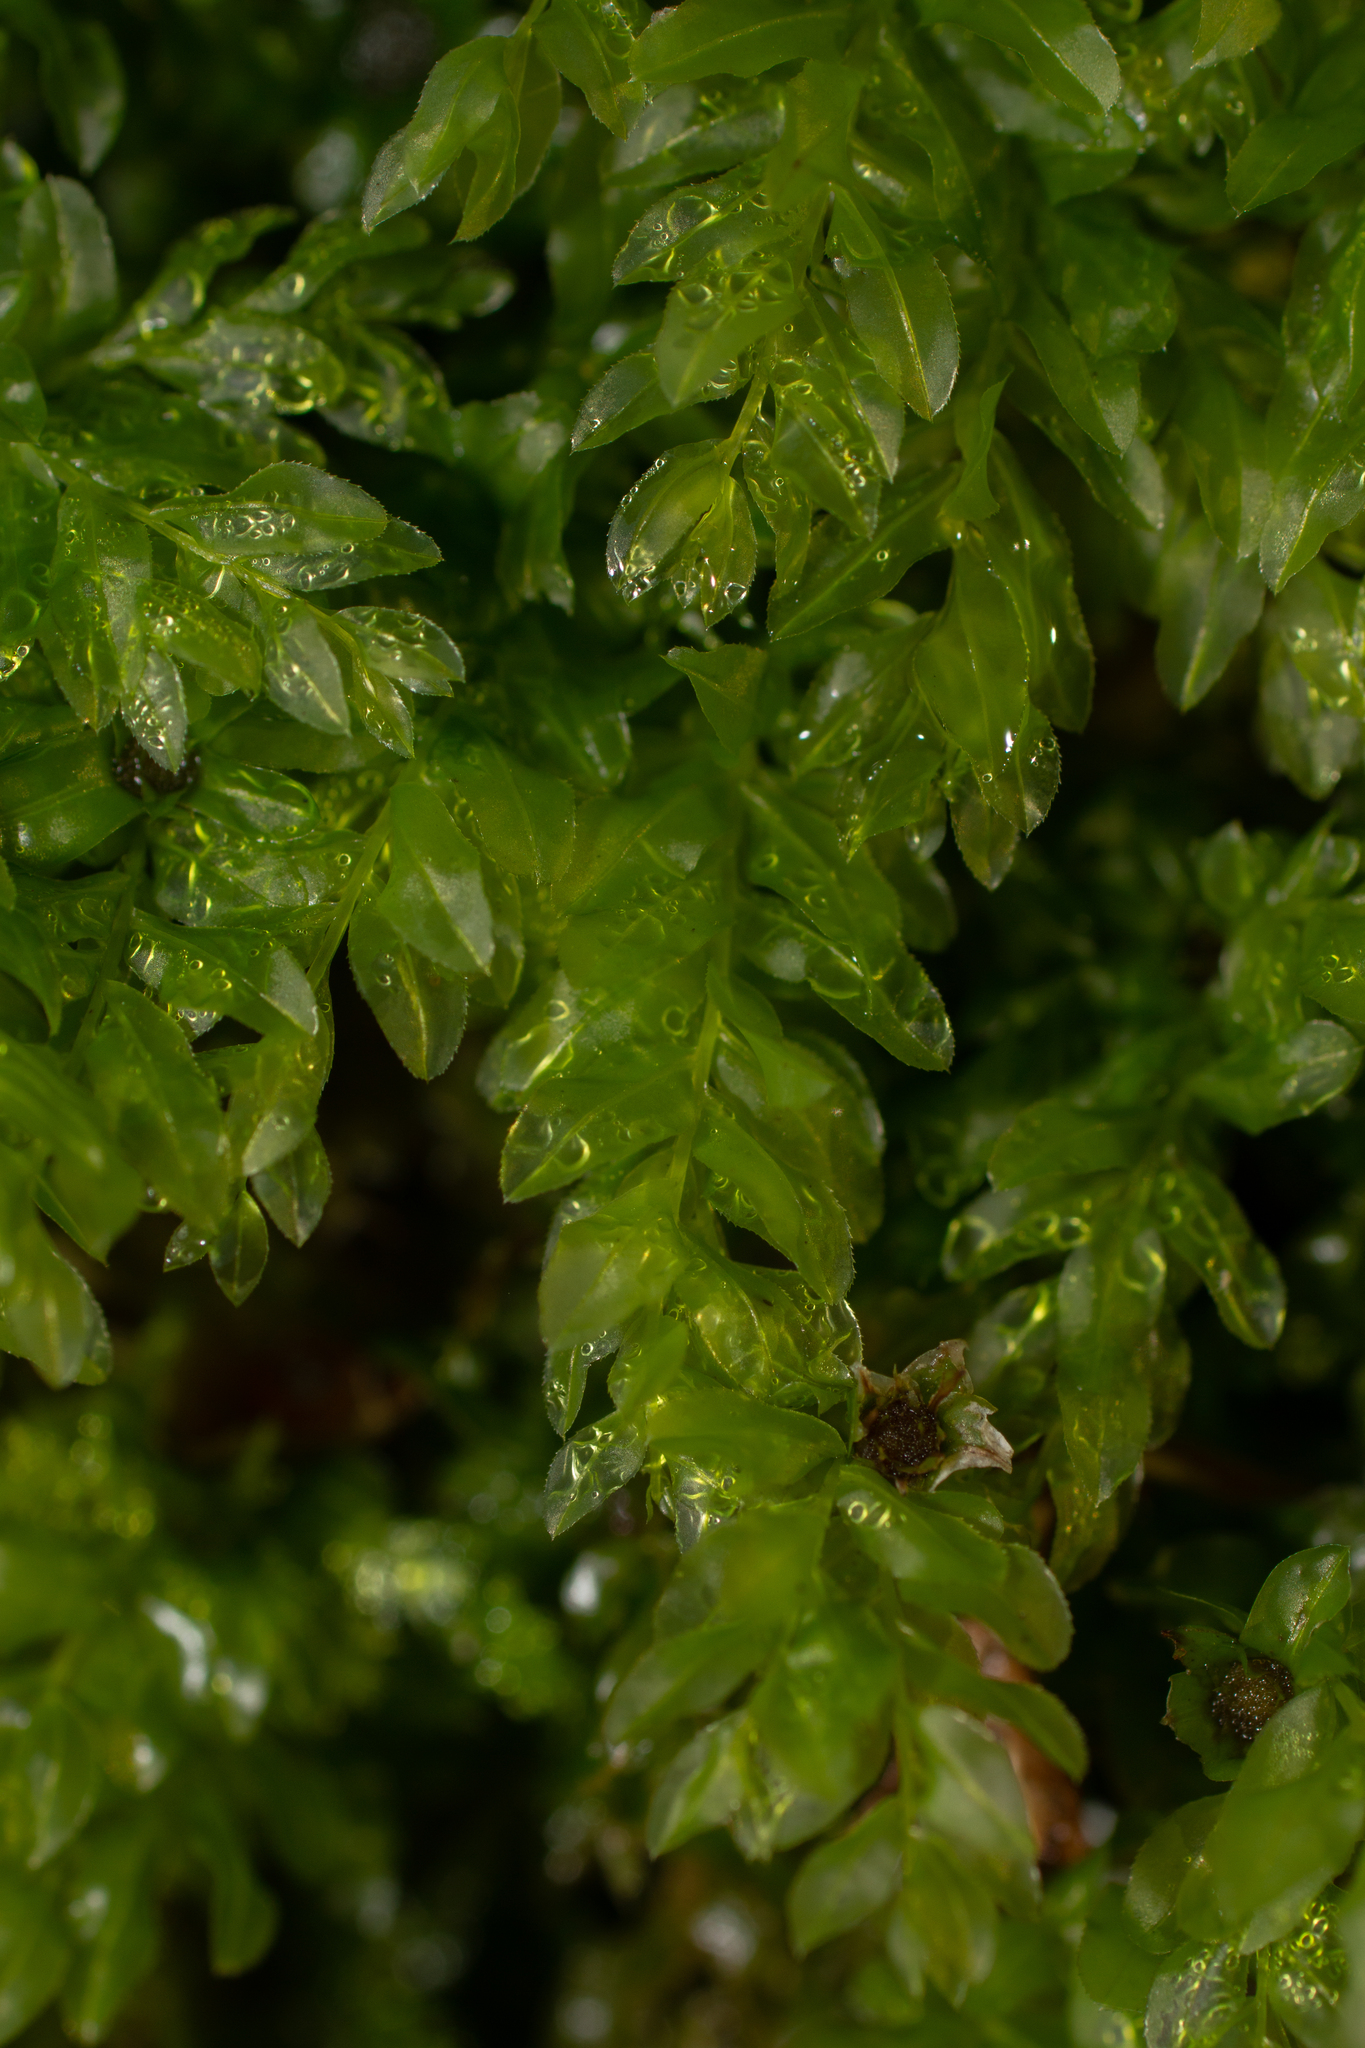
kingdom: Plantae
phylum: Bryophyta
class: Bryopsida
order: Bryales
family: Mniaceae
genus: Plagiomnium
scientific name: Plagiomnium undulatum
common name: Hart's-tongue thyme-moss
